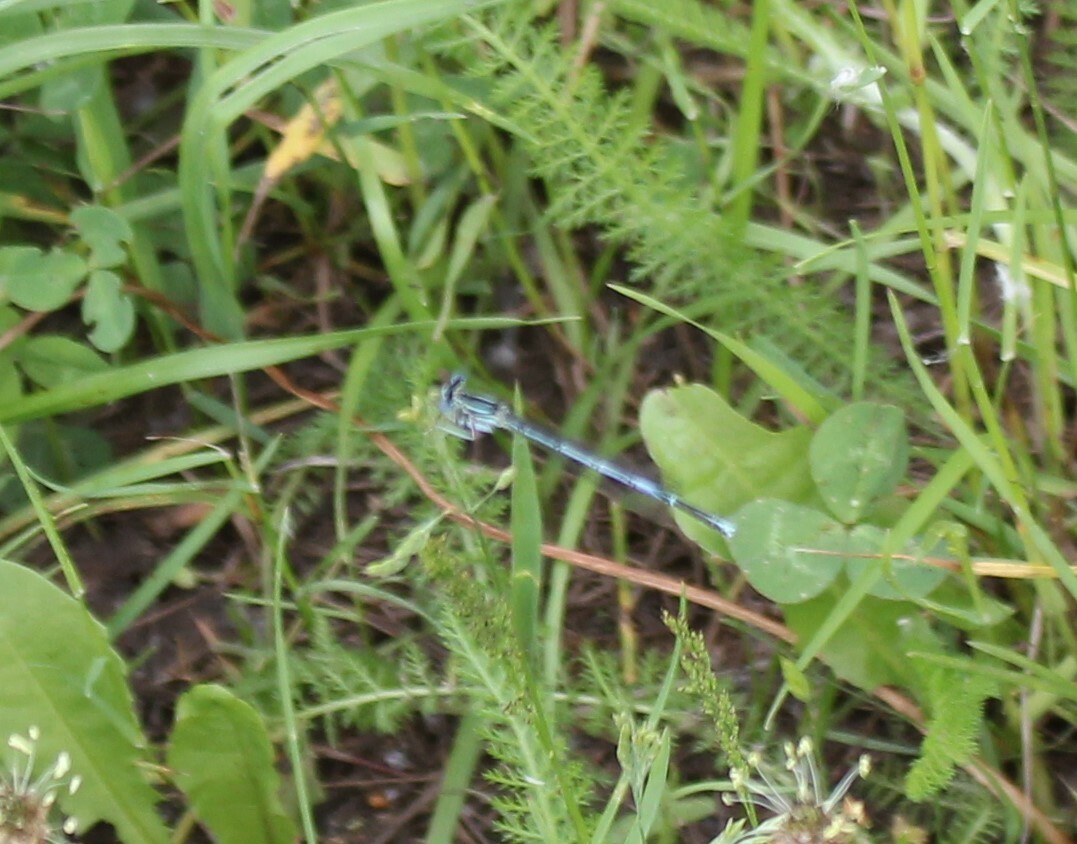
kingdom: Animalia
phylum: Arthropoda
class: Insecta
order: Odonata
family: Platycnemididae
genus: Platycnemis
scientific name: Platycnemis pennipes
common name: White-legged damselfly
